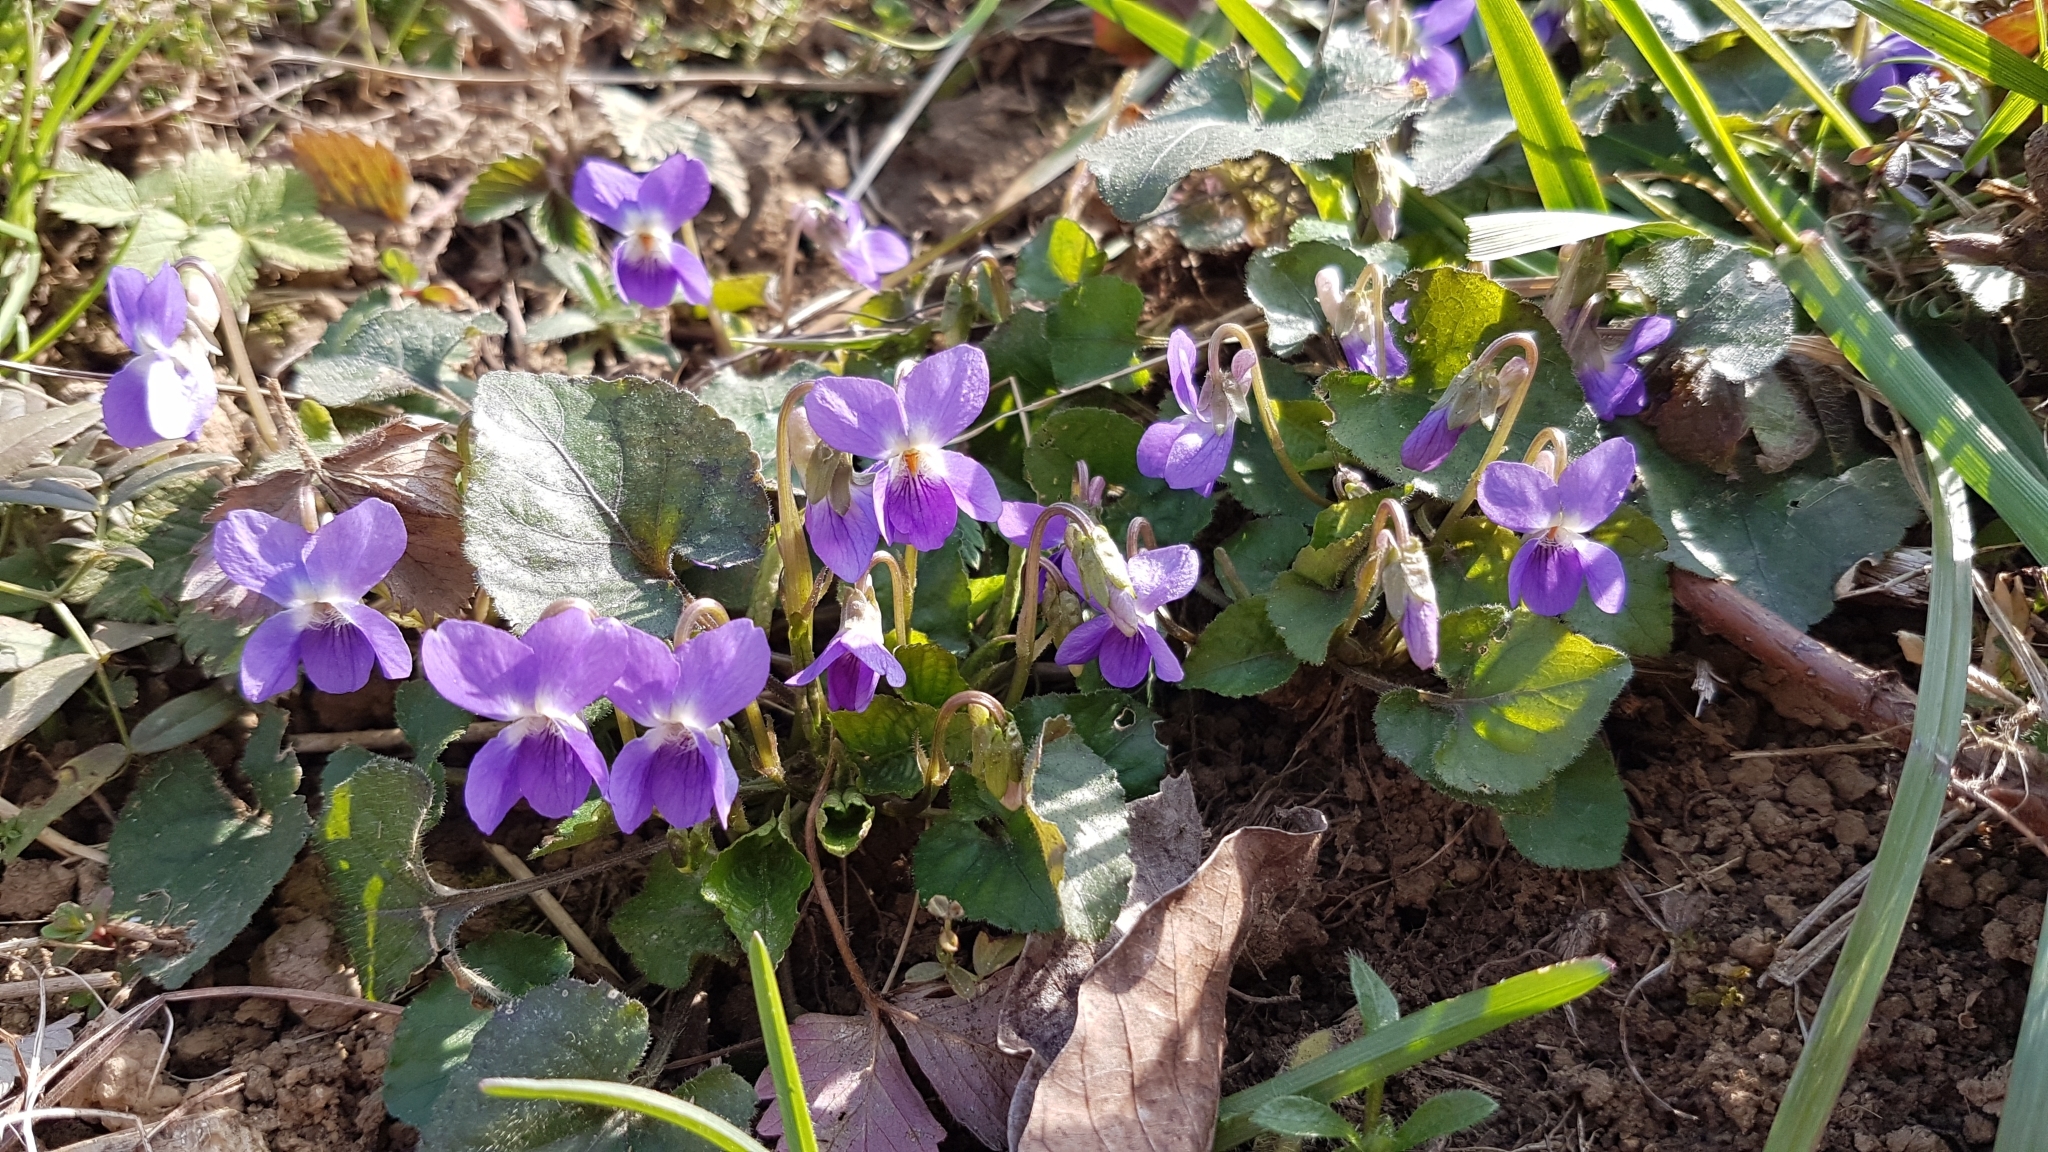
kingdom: Plantae
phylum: Tracheophyta
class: Magnoliopsida
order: Malpighiales
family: Violaceae
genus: Viola
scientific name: Viola odorata
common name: Sweet violet
